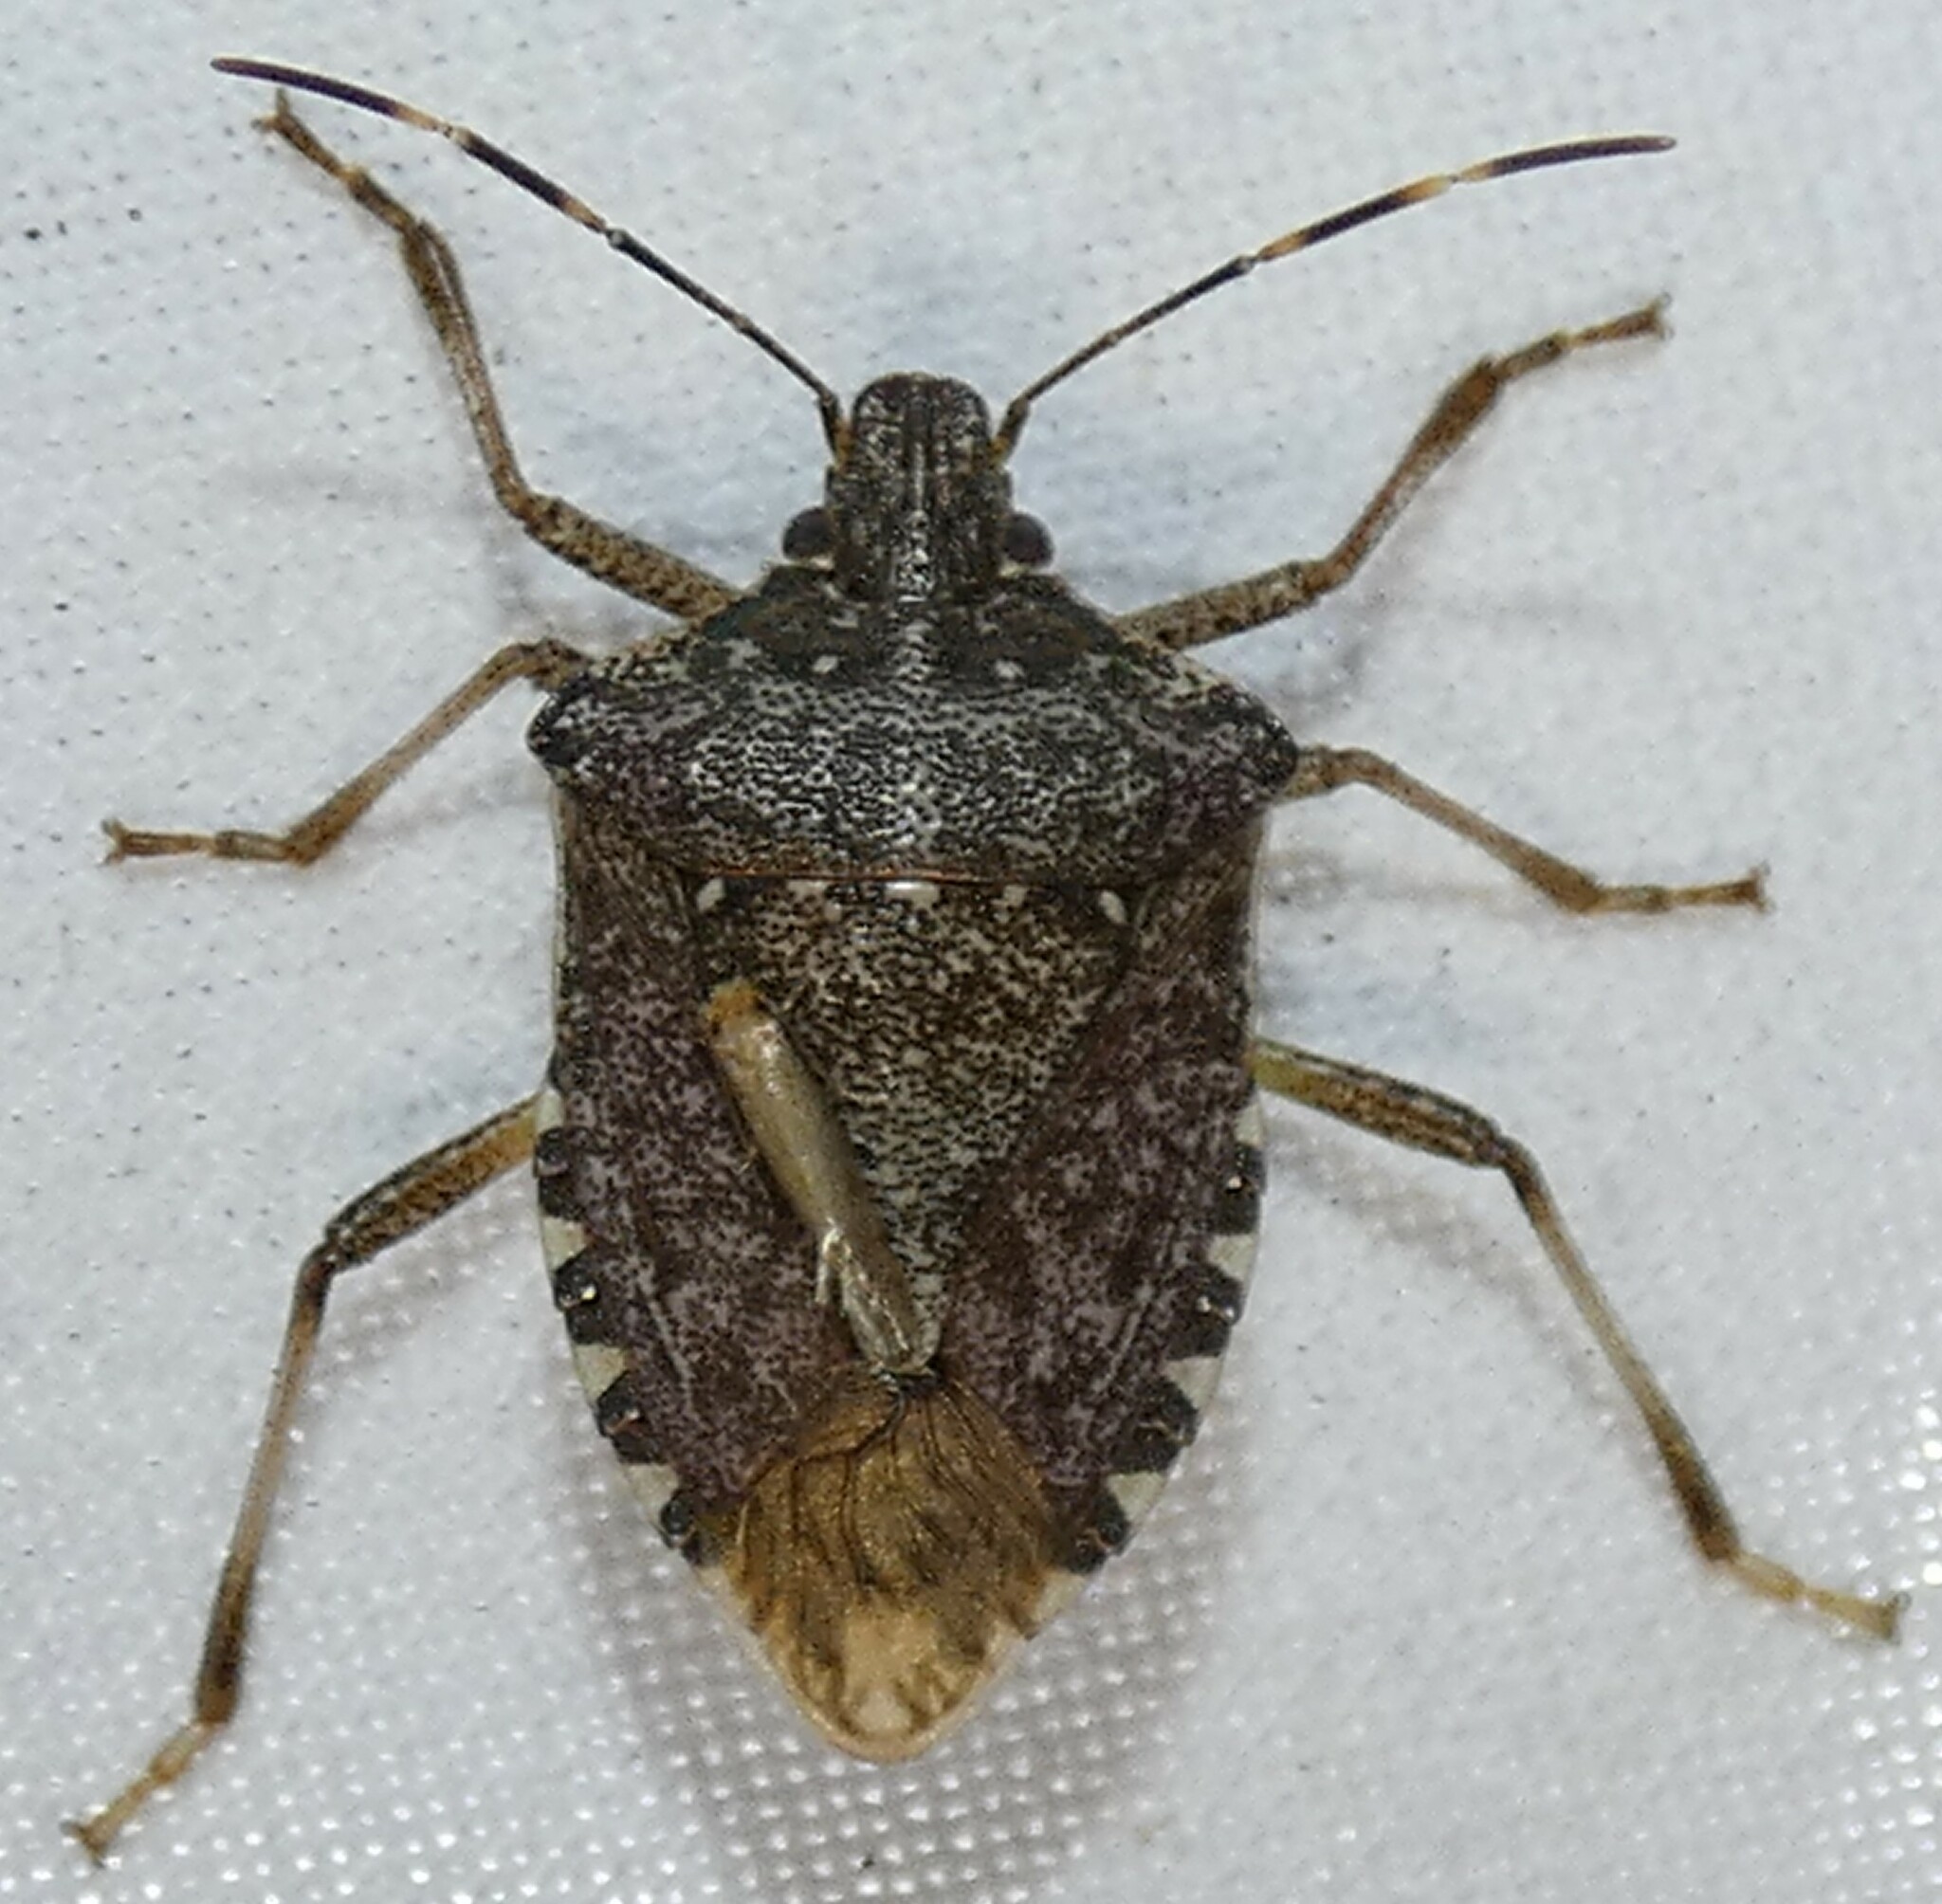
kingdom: Animalia
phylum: Arthropoda
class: Insecta
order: Hemiptera
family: Pentatomidae
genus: Halyomorpha
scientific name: Halyomorpha halys
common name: Brown marmorated stink bug
